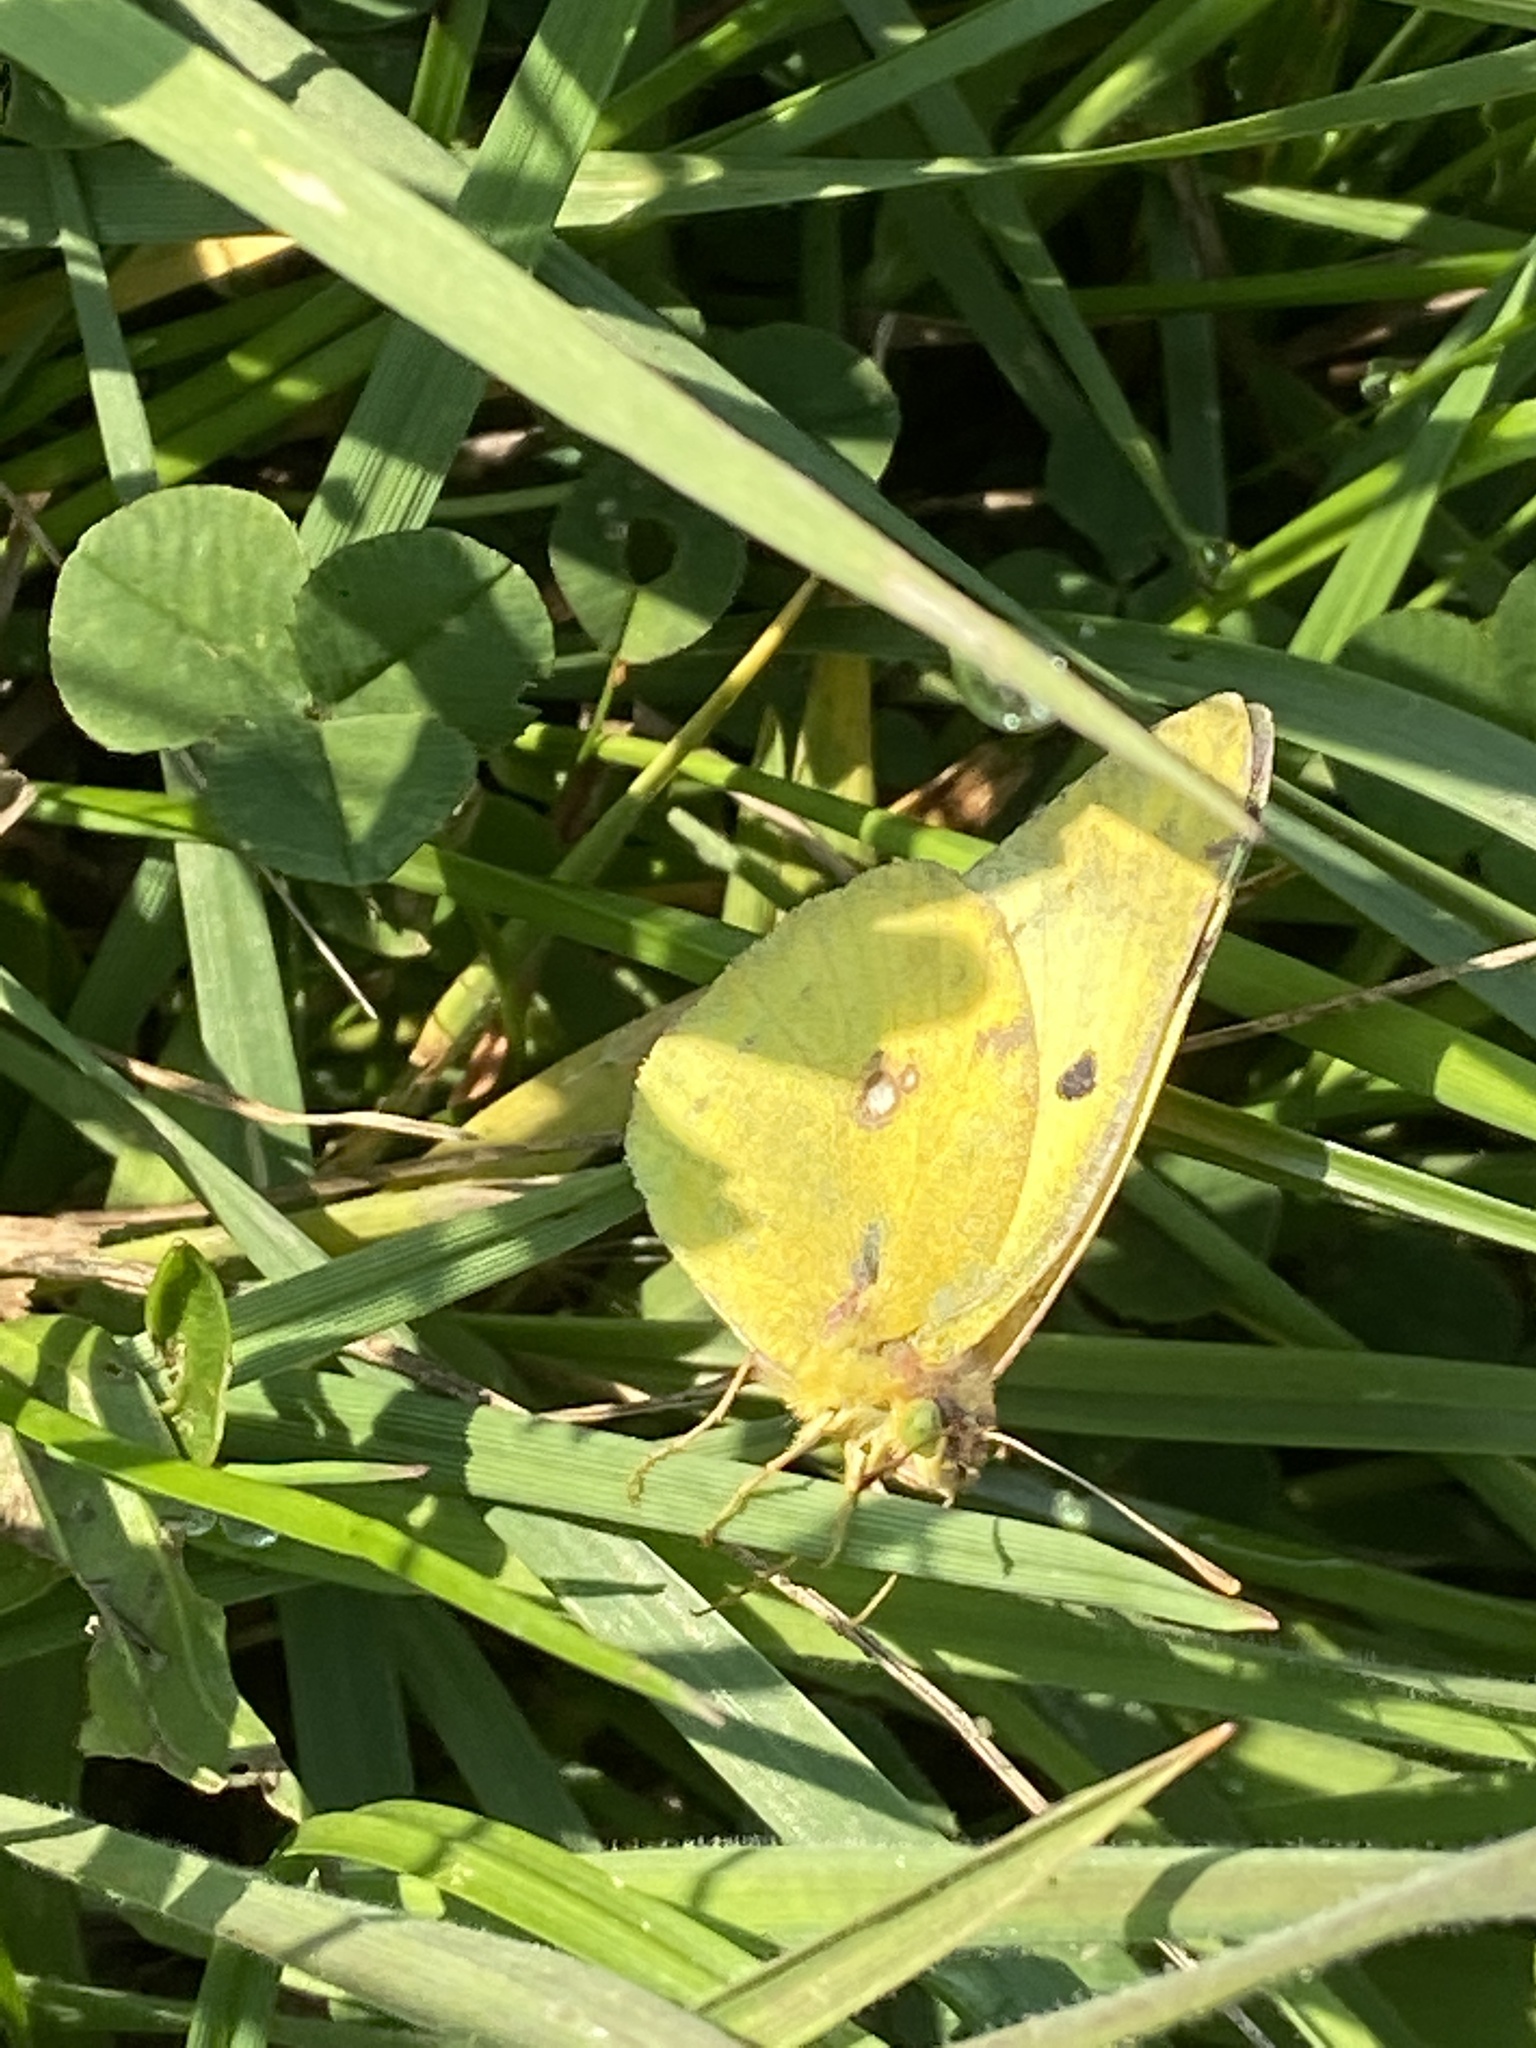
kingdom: Animalia
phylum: Arthropoda
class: Insecta
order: Lepidoptera
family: Pieridae
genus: Colias
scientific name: Colias hyale
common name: Pale clouded yellow
